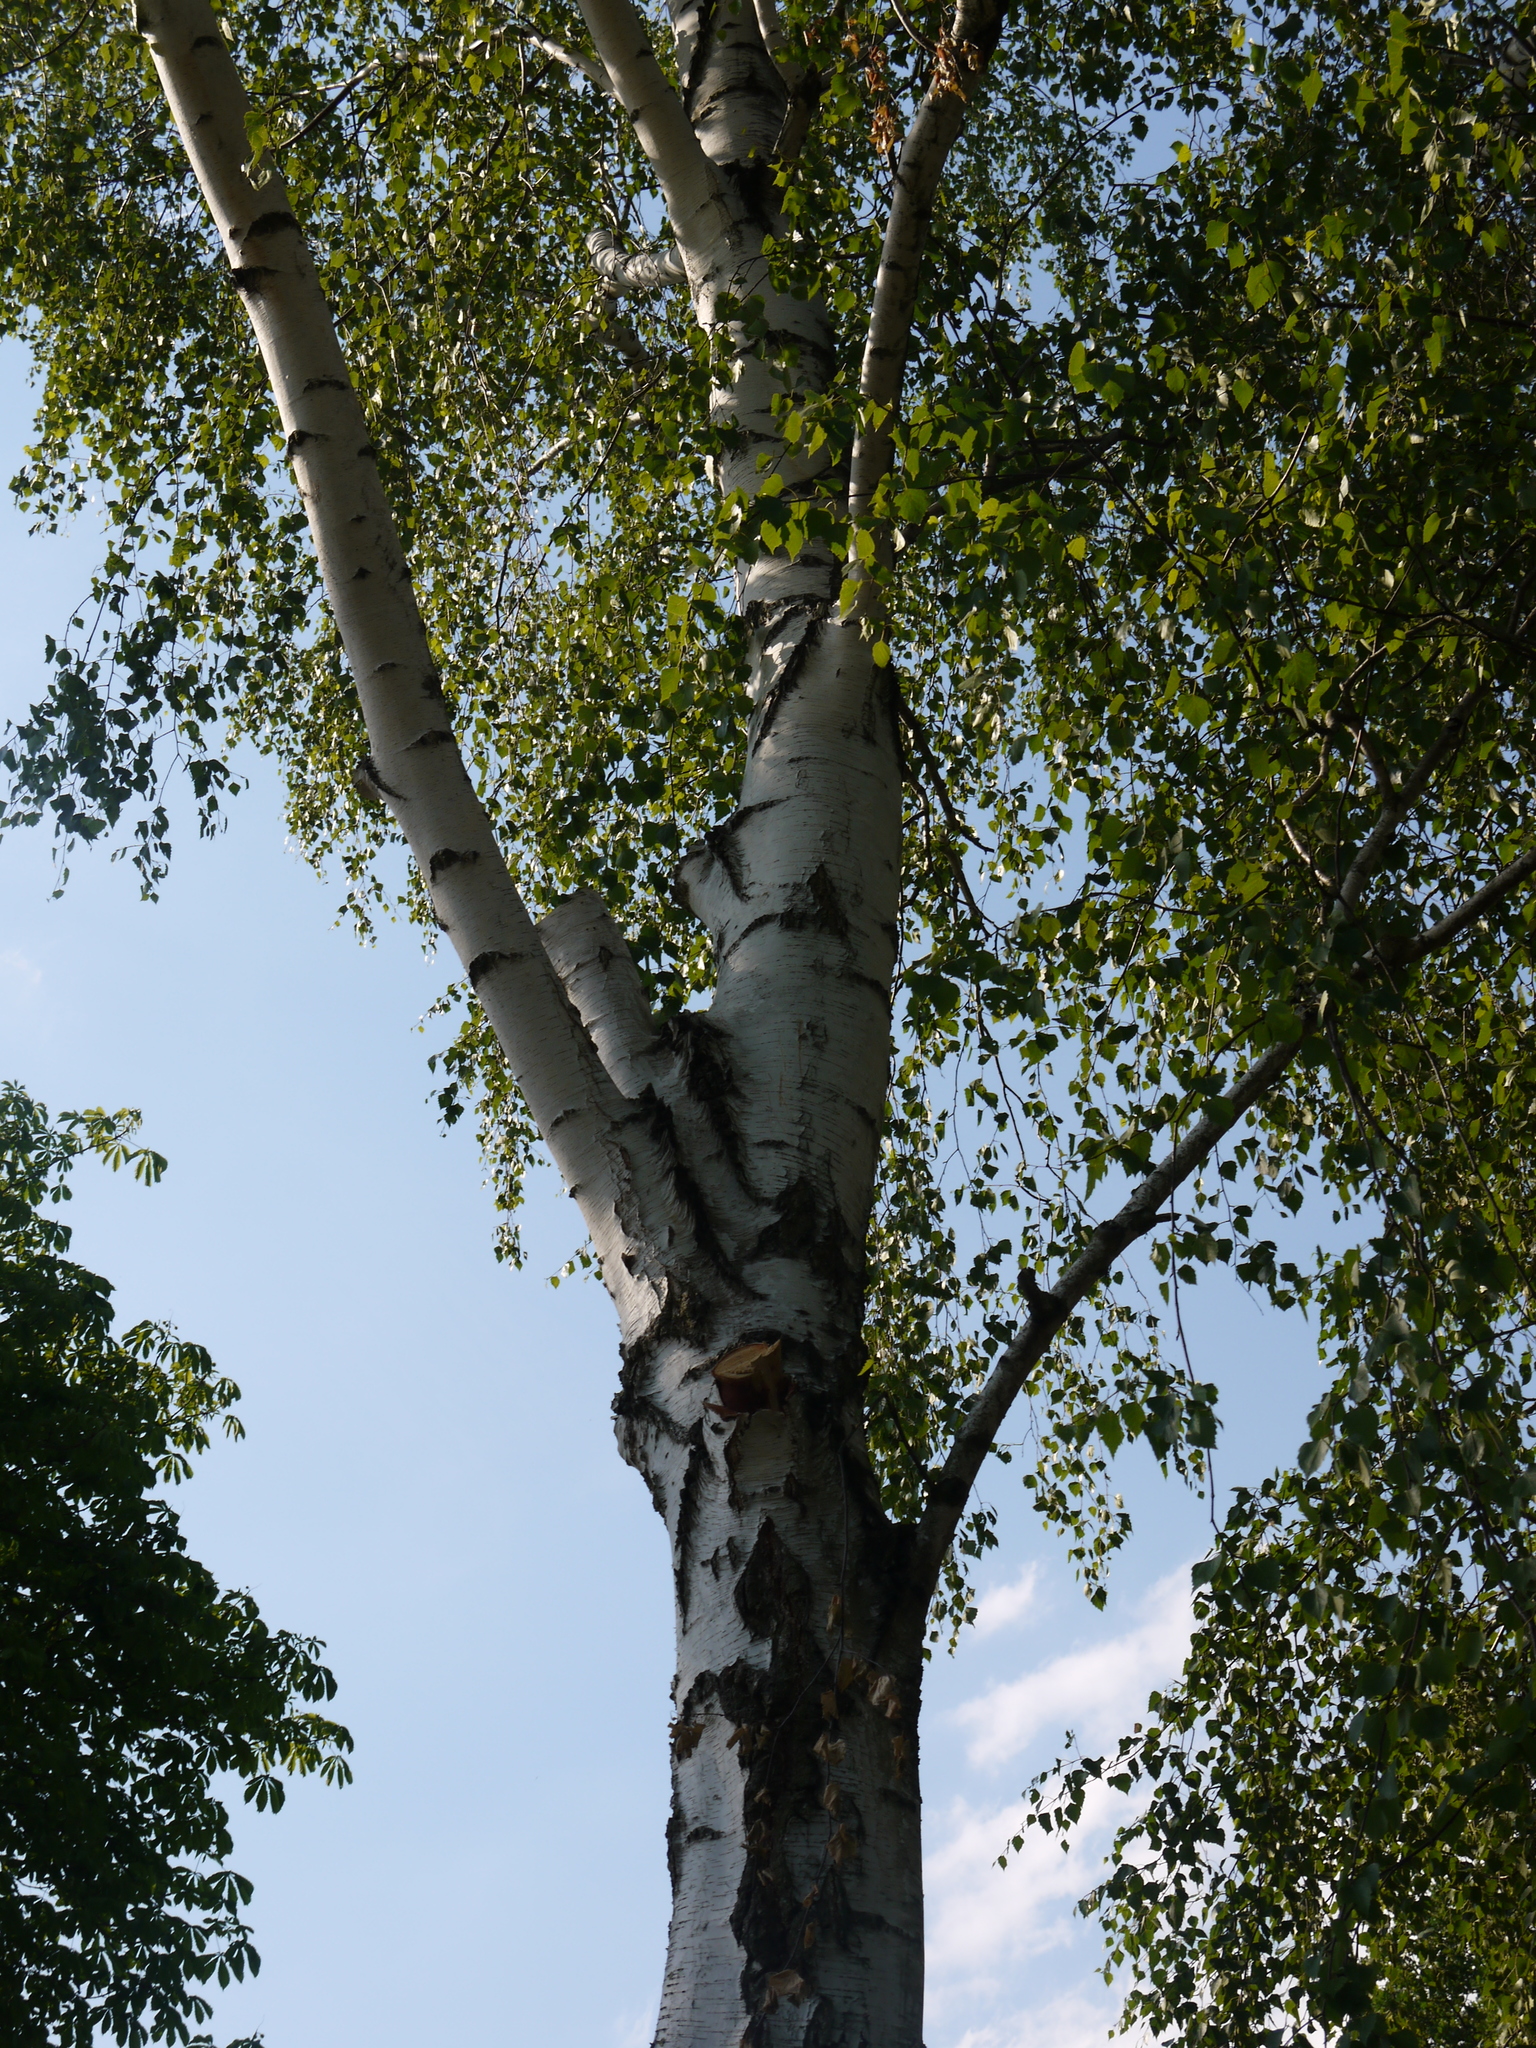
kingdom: Plantae
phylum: Tracheophyta
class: Magnoliopsida
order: Fagales
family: Betulaceae
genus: Betula
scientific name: Betula pendula
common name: Silver birch
